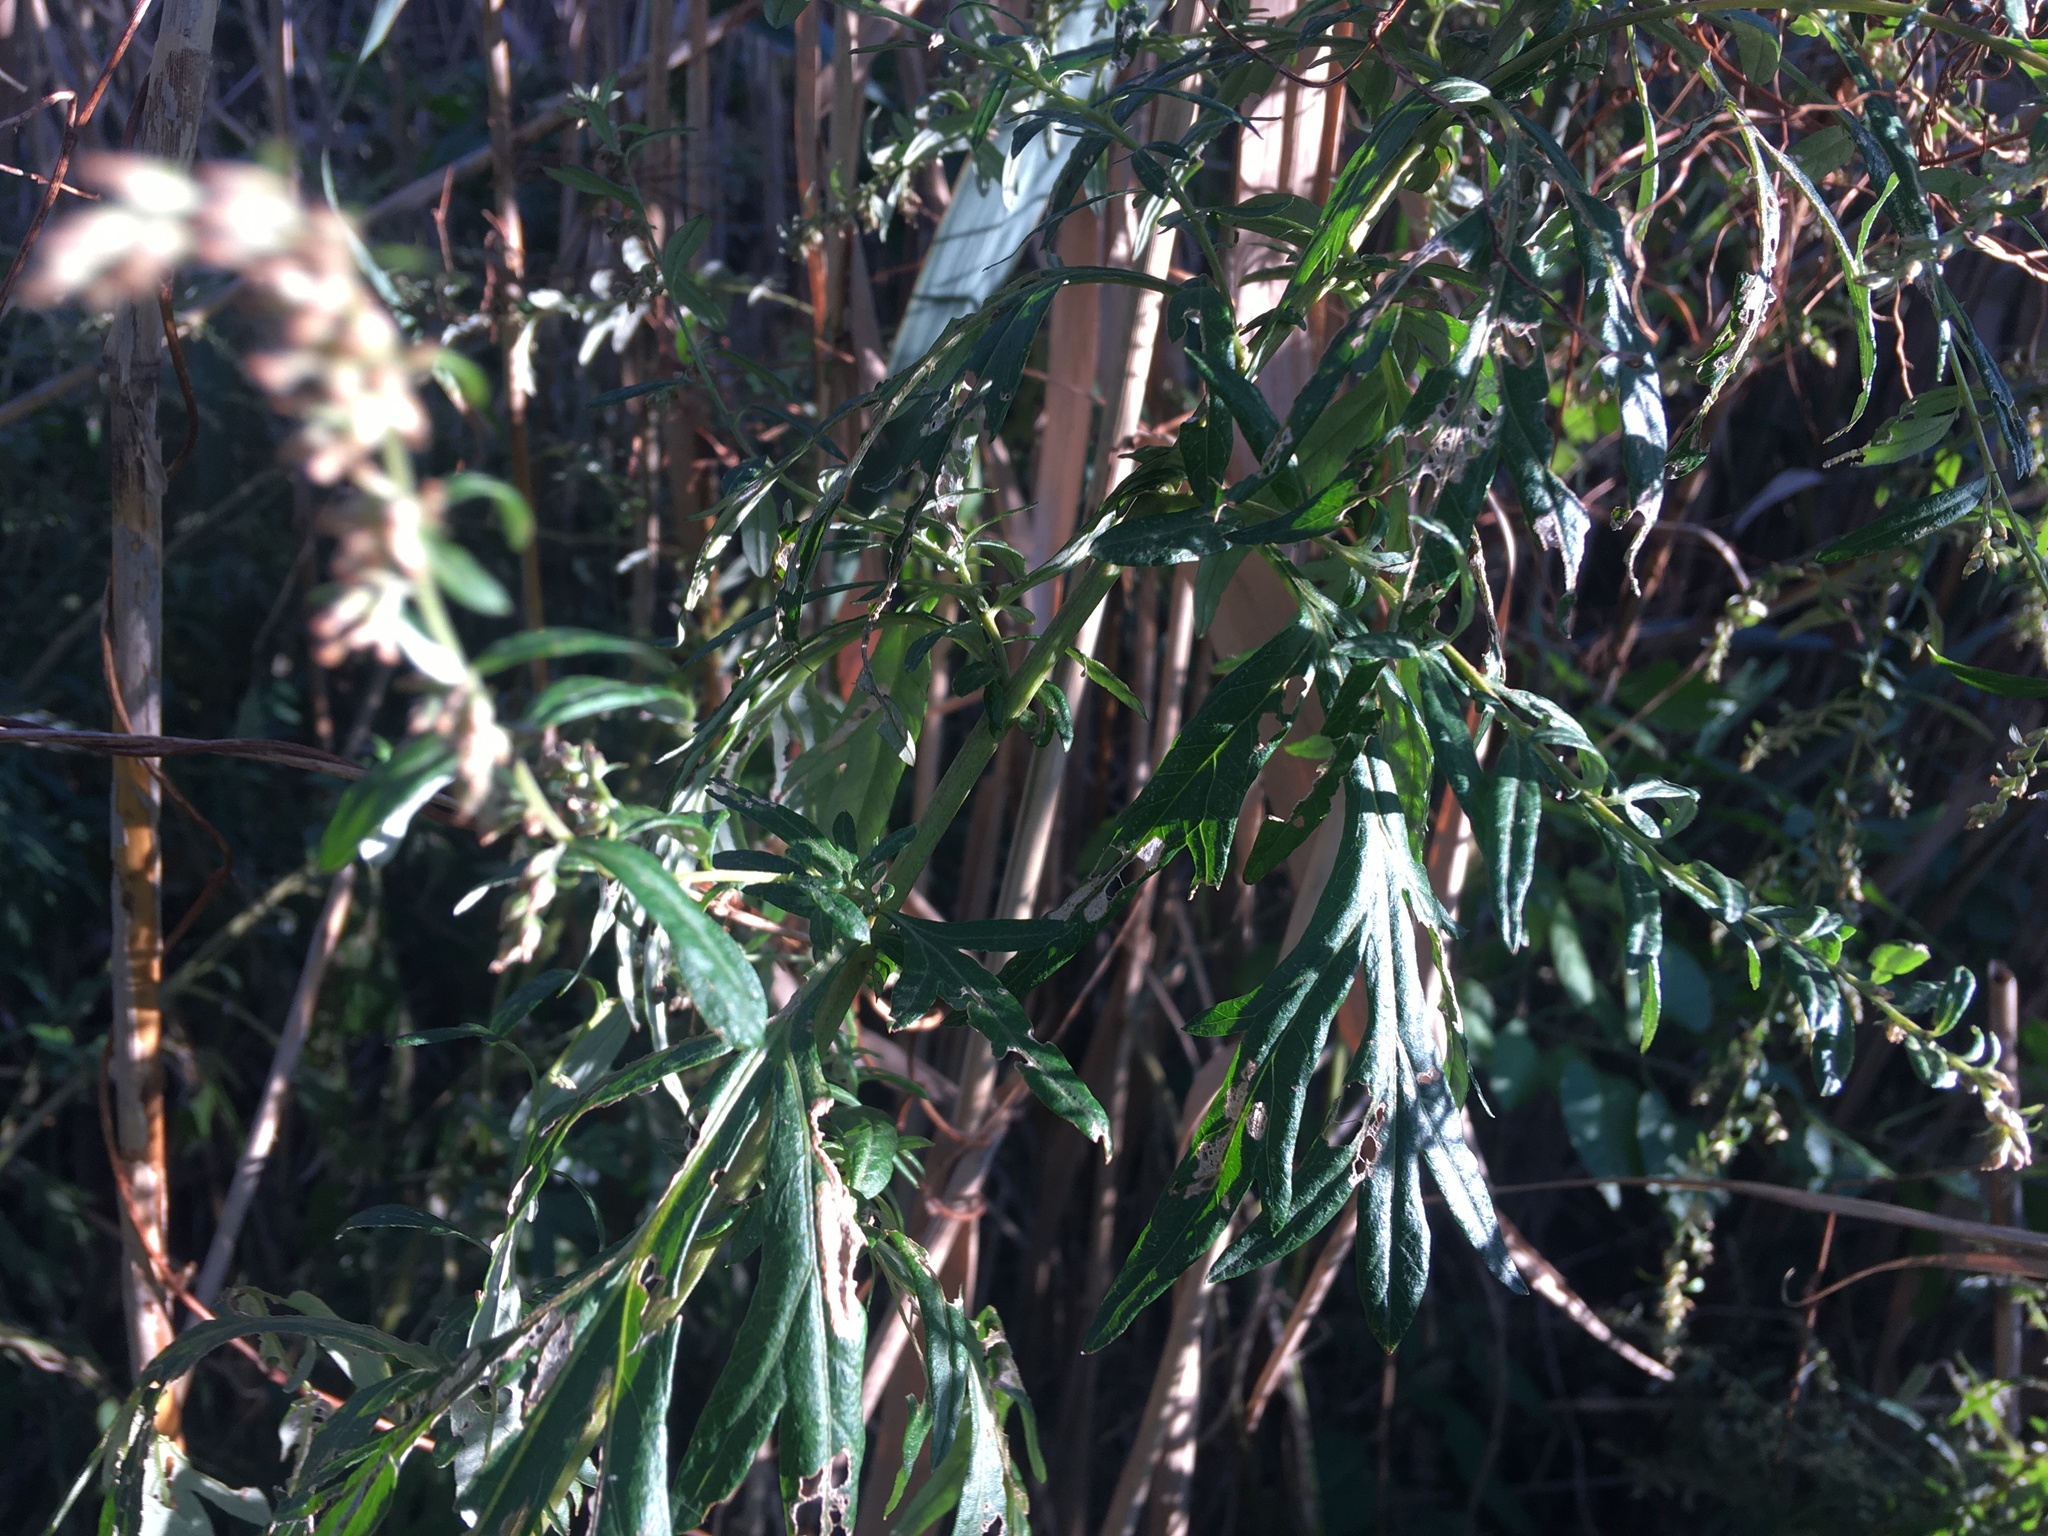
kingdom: Plantae
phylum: Tracheophyta
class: Magnoliopsida
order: Asterales
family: Asteraceae
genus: Artemisia
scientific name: Artemisia vulgaris
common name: Mugwort
